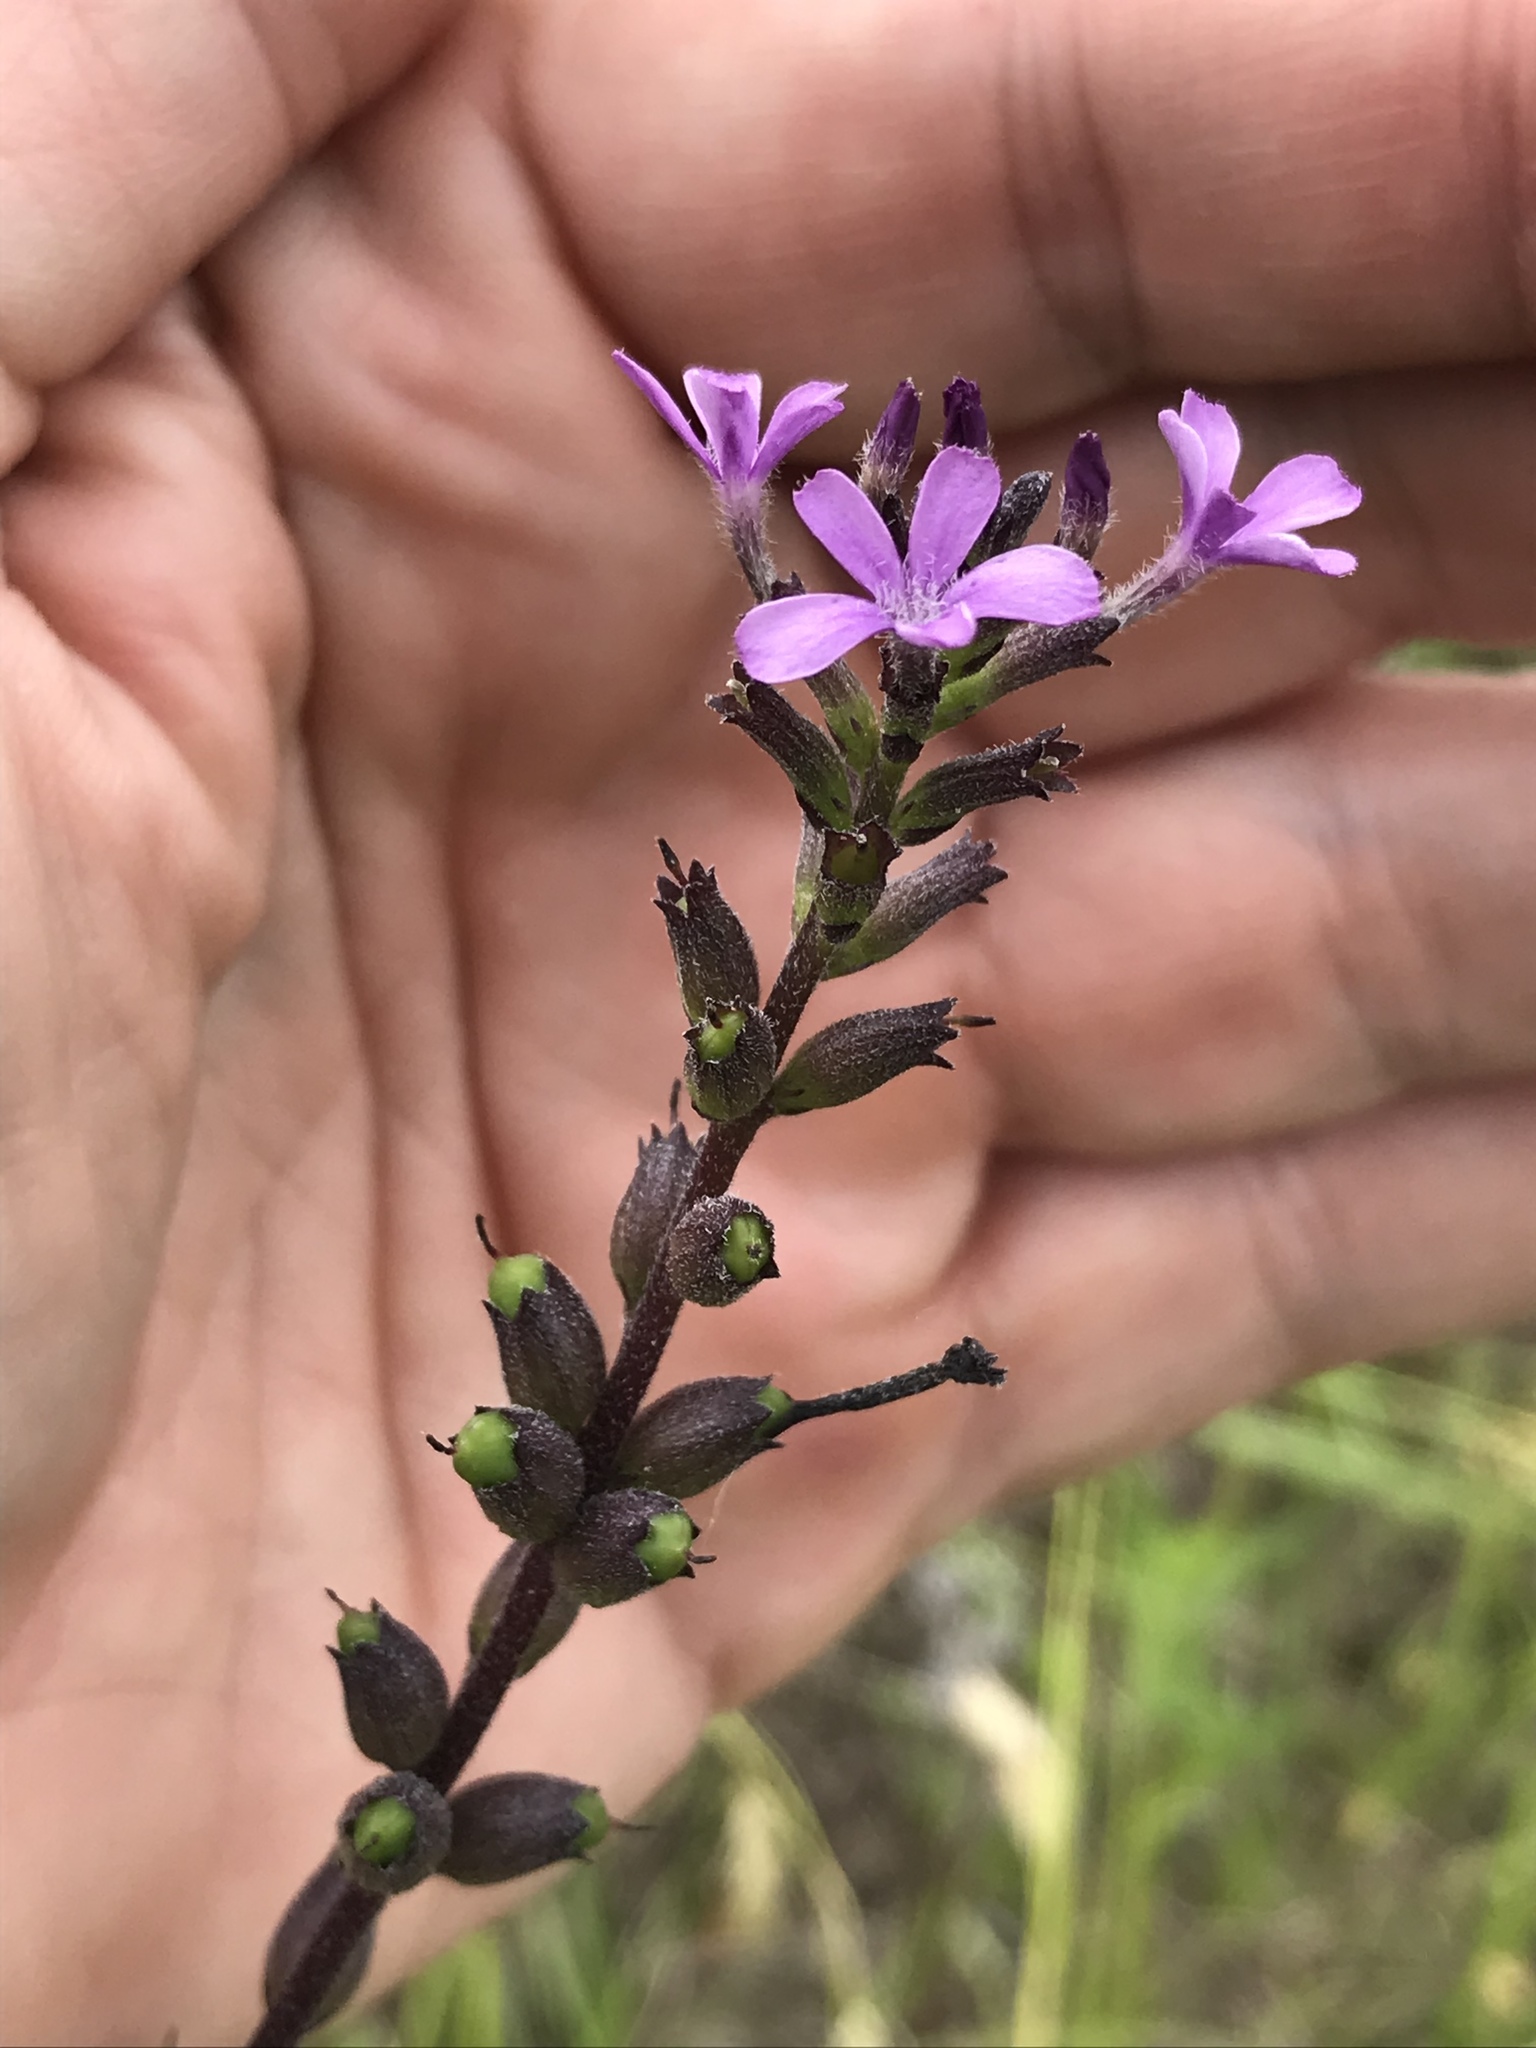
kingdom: Plantae
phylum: Tracheophyta
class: Magnoliopsida
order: Lamiales
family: Orobanchaceae
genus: Buchnera
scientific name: Buchnera floridana
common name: Florida bluehearts
